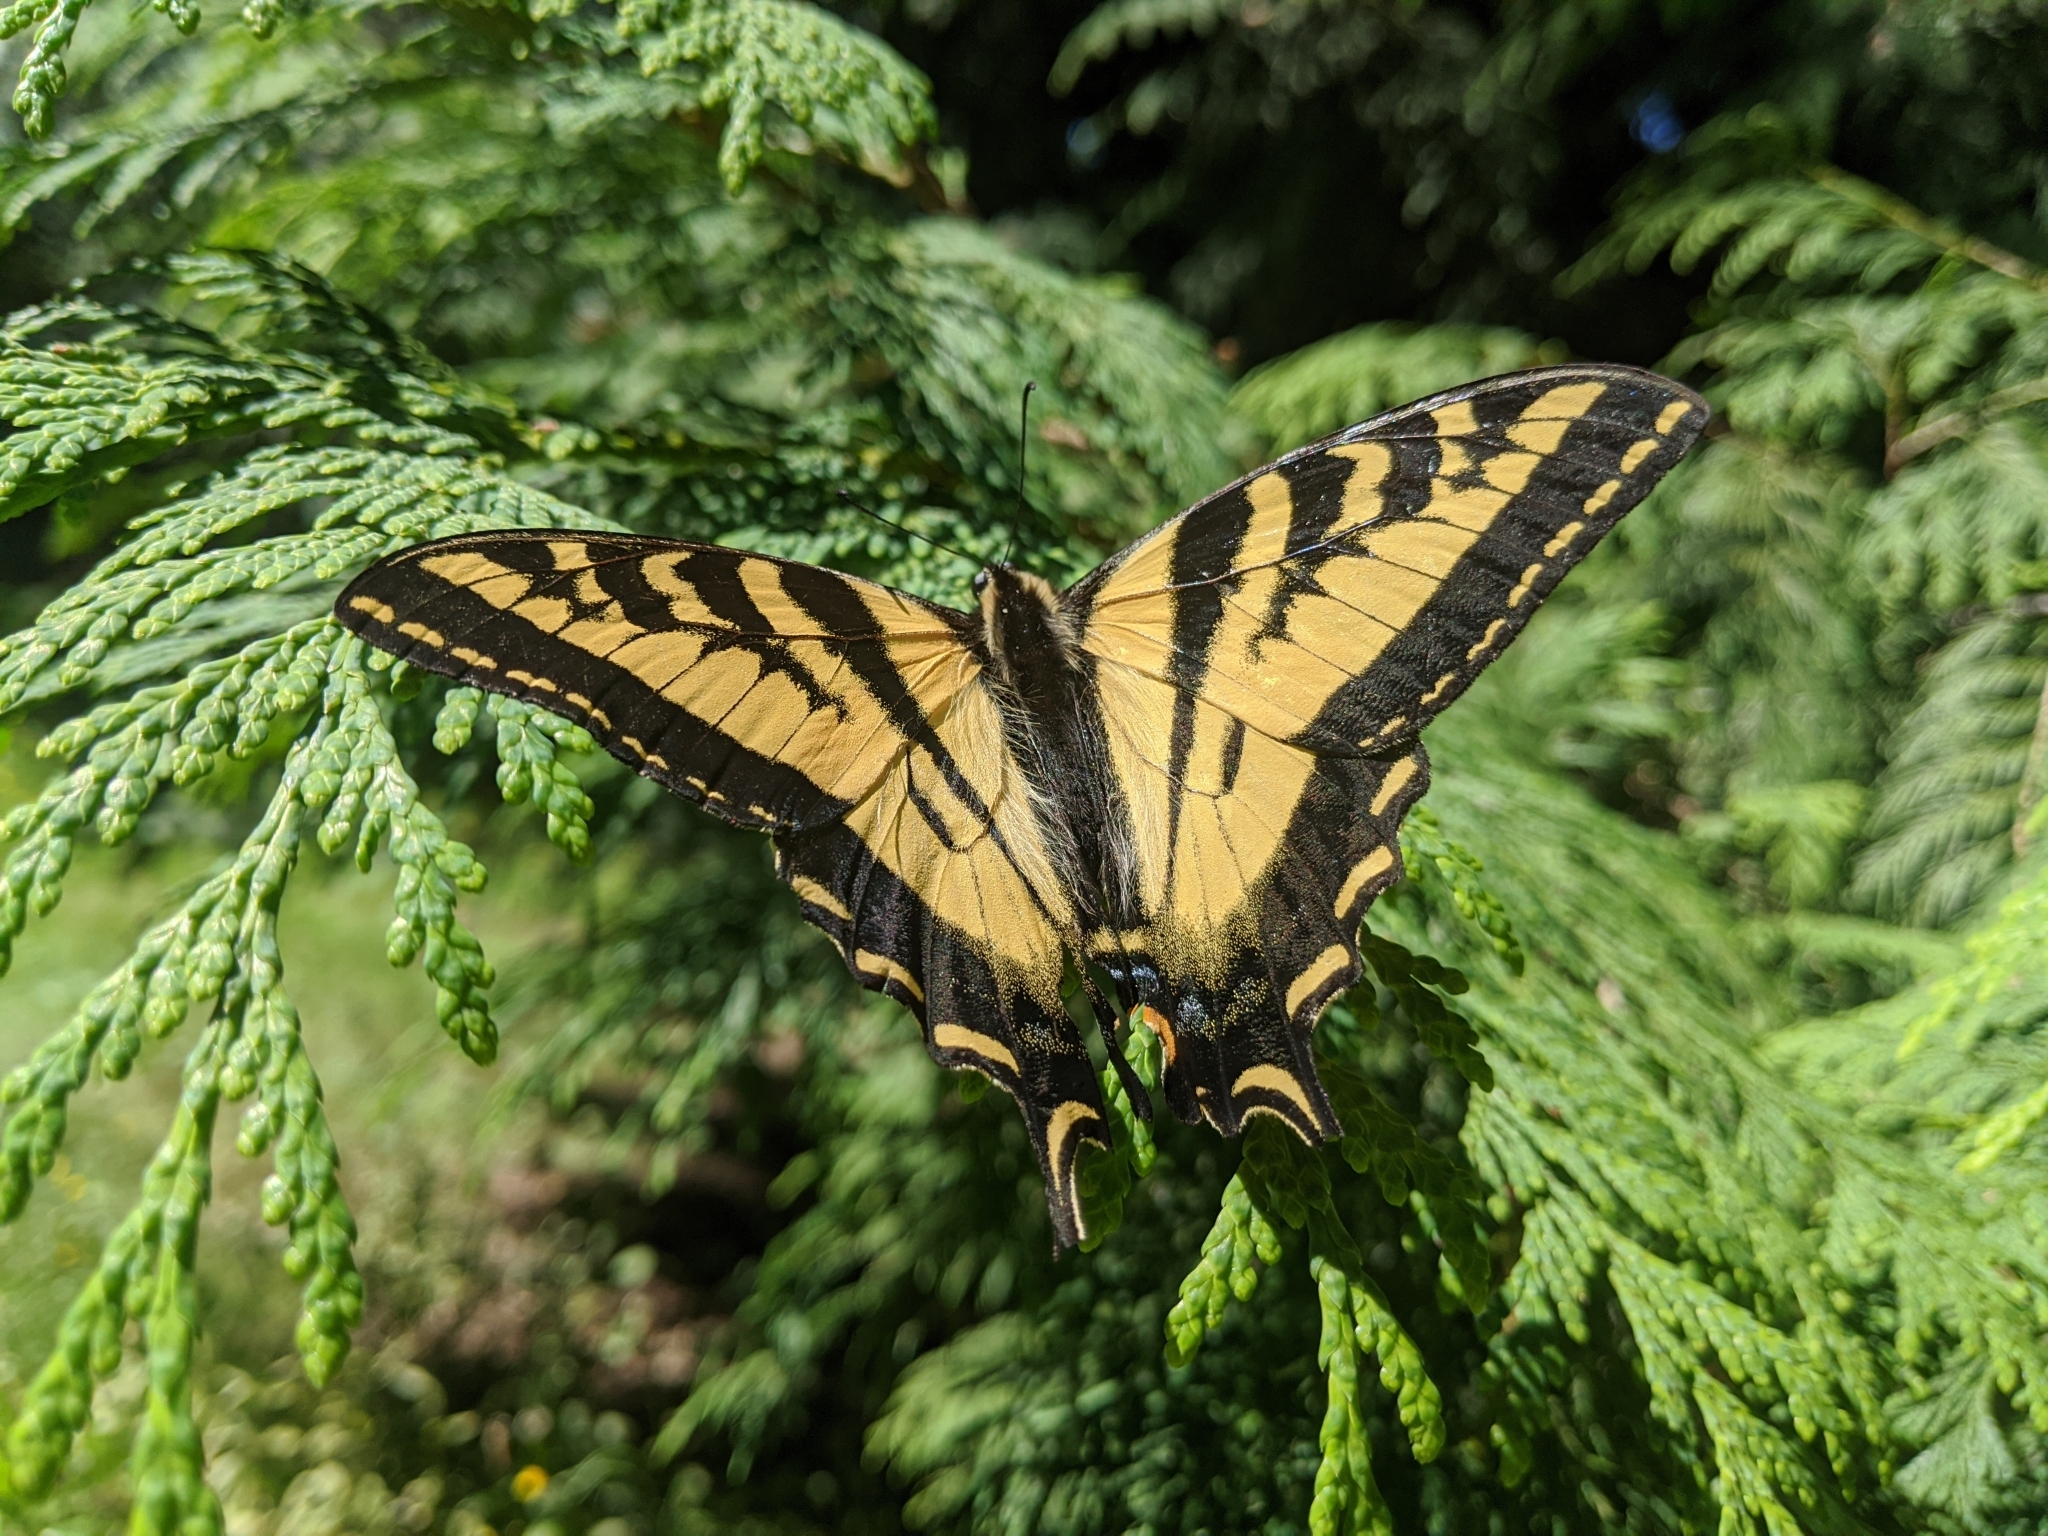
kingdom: Animalia
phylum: Arthropoda
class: Insecta
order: Lepidoptera
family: Papilionidae
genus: Papilio
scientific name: Papilio rutulus
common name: Western tiger swallowtail
